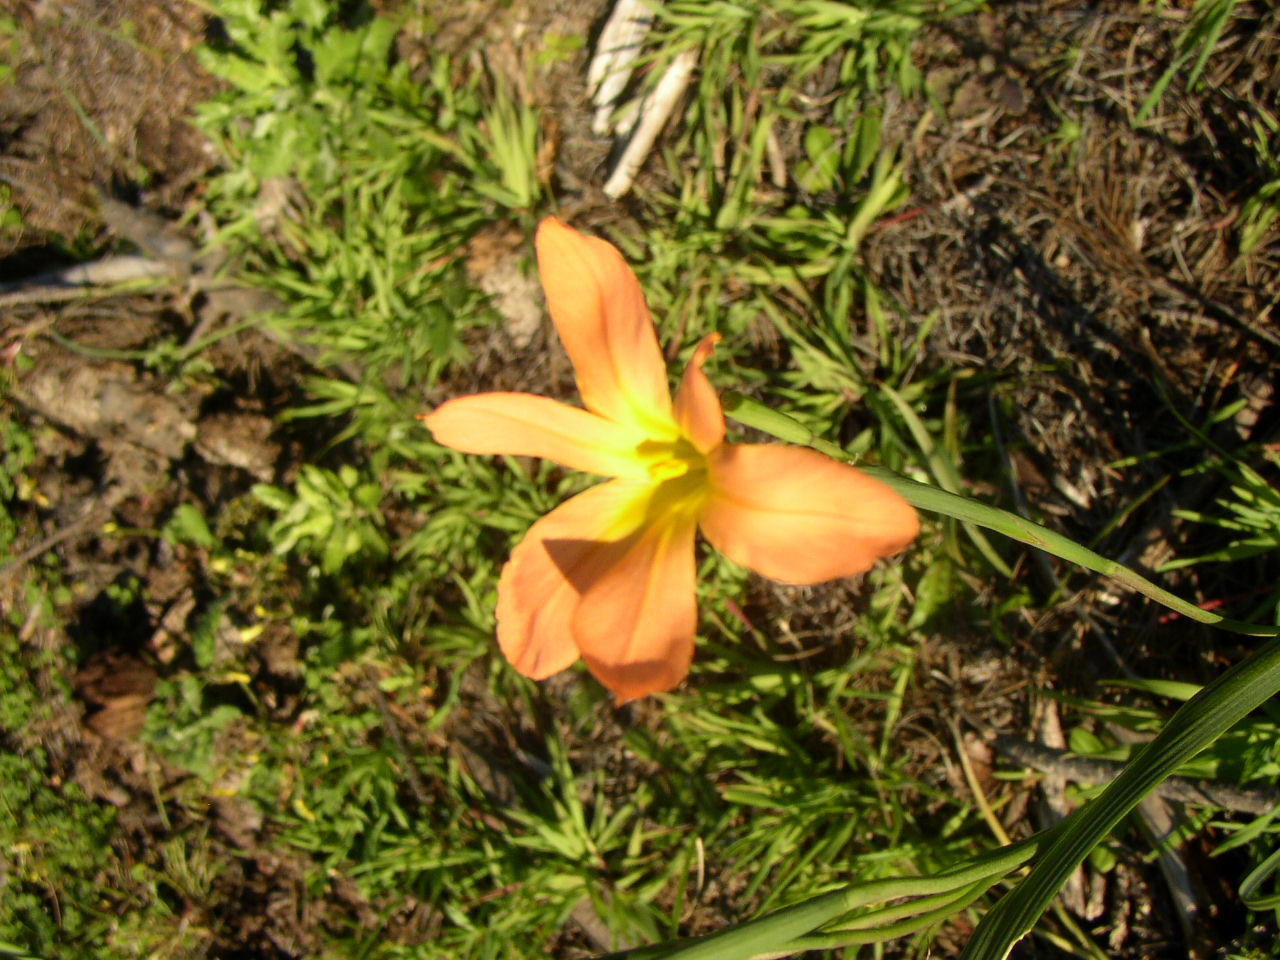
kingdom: Plantae
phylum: Tracheophyta
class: Liliopsida
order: Asparagales
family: Iridaceae
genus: Moraea
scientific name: Moraea flaccida
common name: One-leaf cape-tulip
